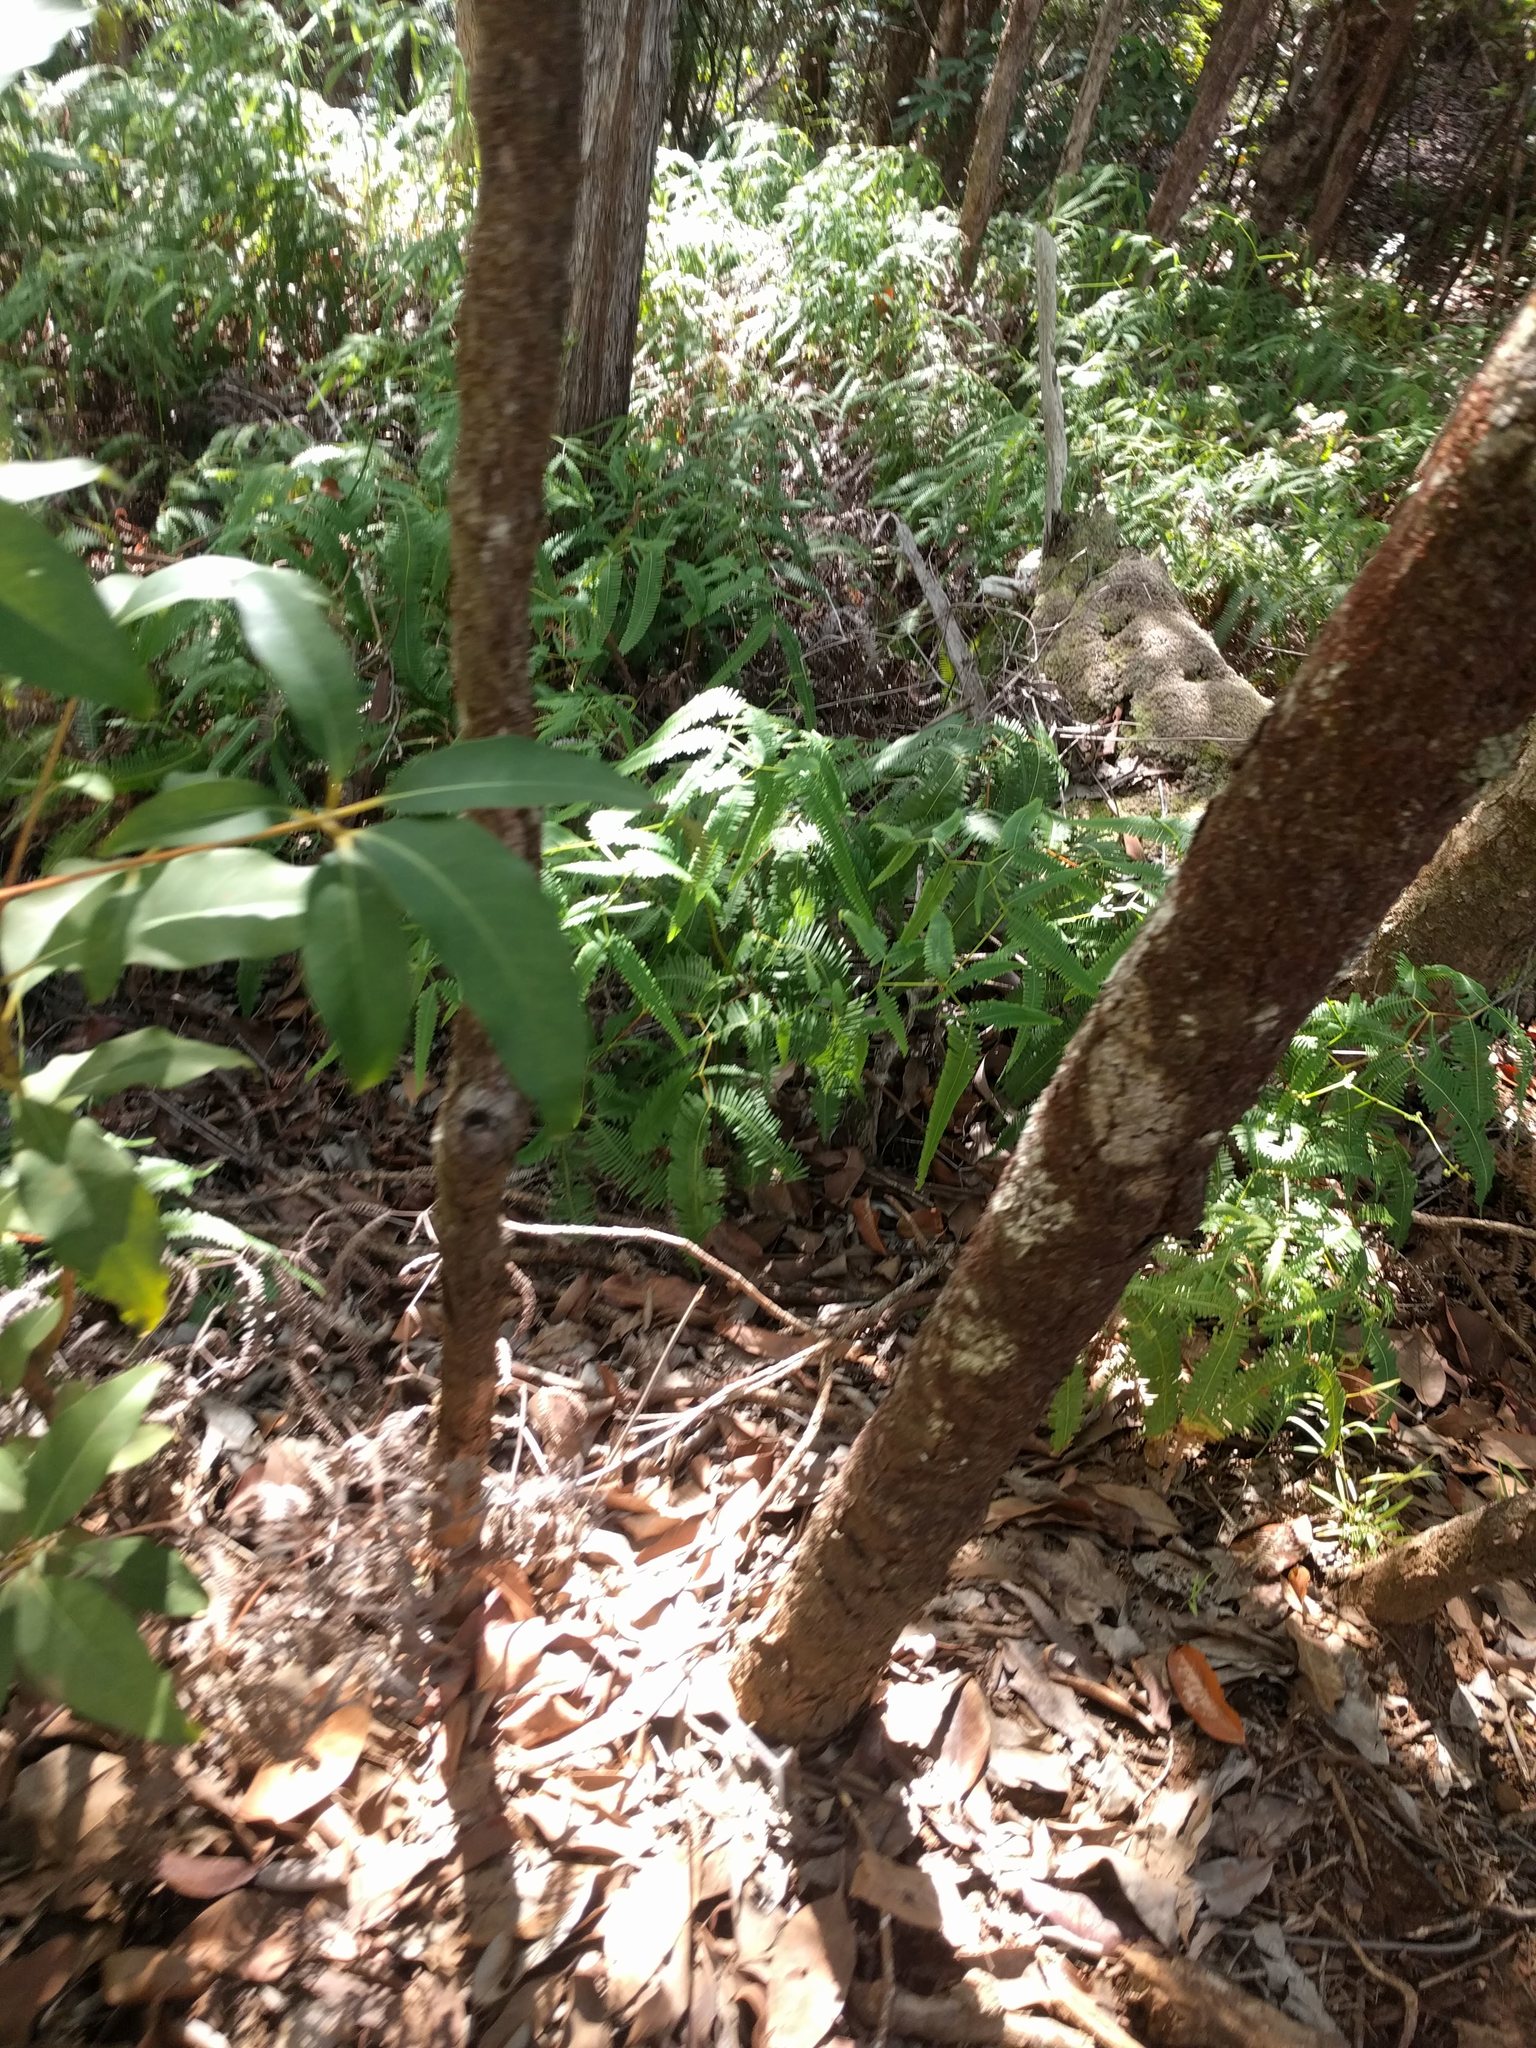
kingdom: Plantae
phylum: Tracheophyta
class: Polypodiopsida
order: Gleicheniales
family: Gleicheniaceae
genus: Dicranopteris
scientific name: Dicranopteris linearis
